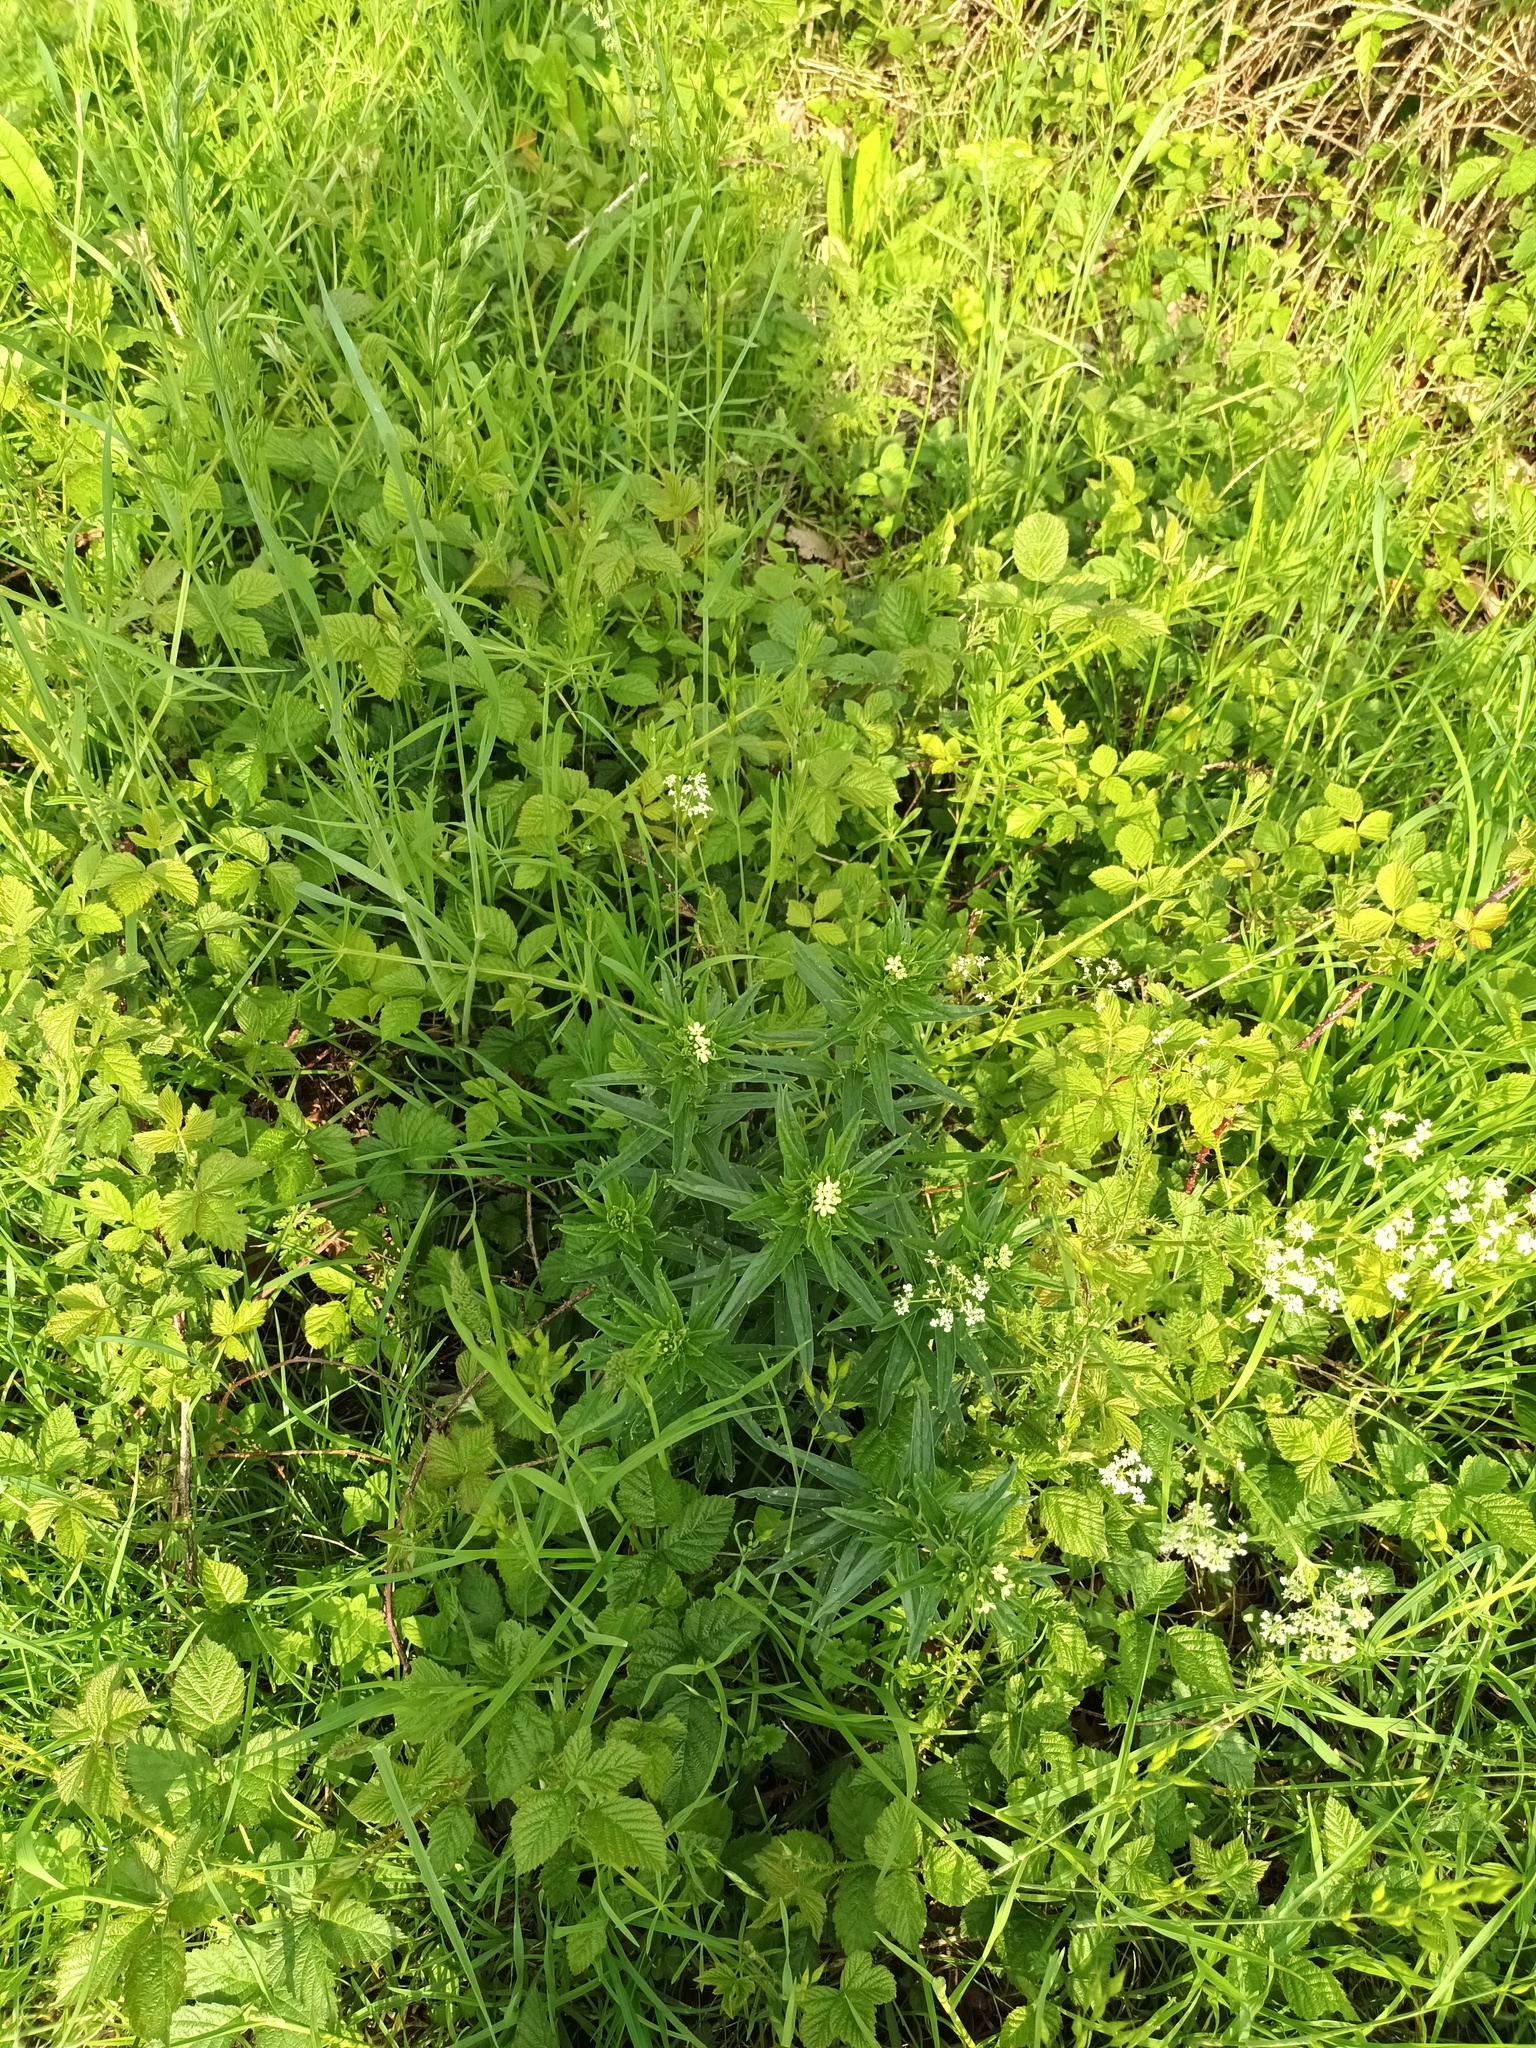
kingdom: Plantae
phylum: Tracheophyta
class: Magnoliopsida
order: Boraginales
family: Boraginaceae
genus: Lithospermum
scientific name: Lithospermum officinale
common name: Common gromwell
